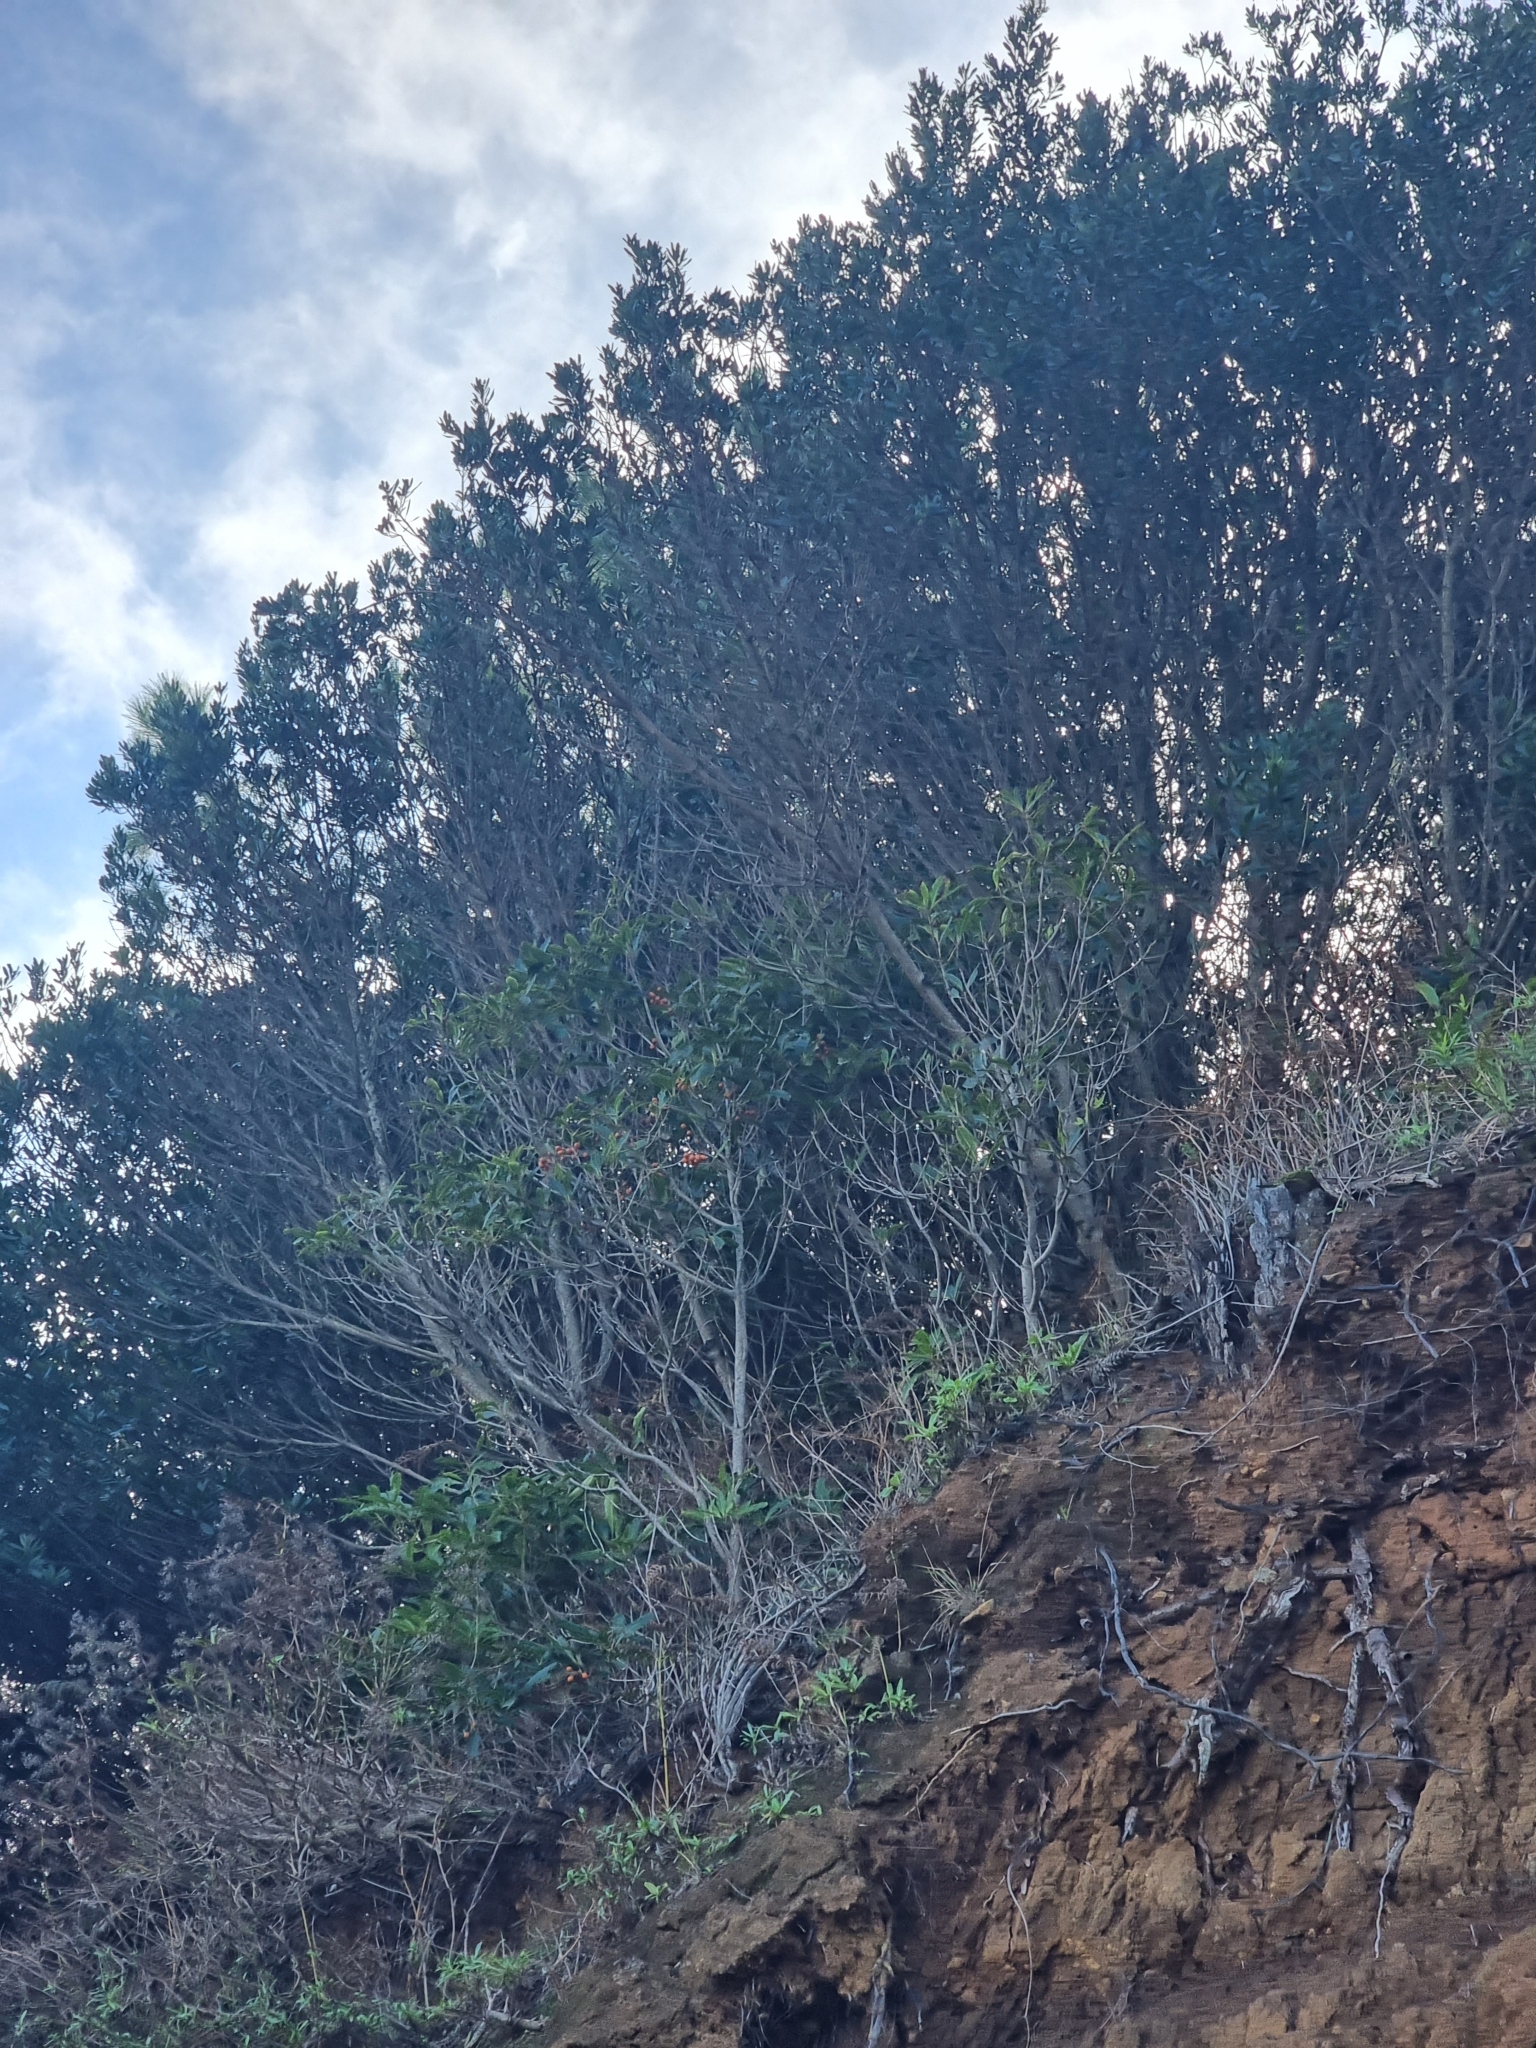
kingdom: Plantae
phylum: Tracheophyta
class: Magnoliopsida
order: Apiales
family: Pittosporaceae
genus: Pittosporum
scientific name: Pittosporum undulatum
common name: Australian cheesewood
